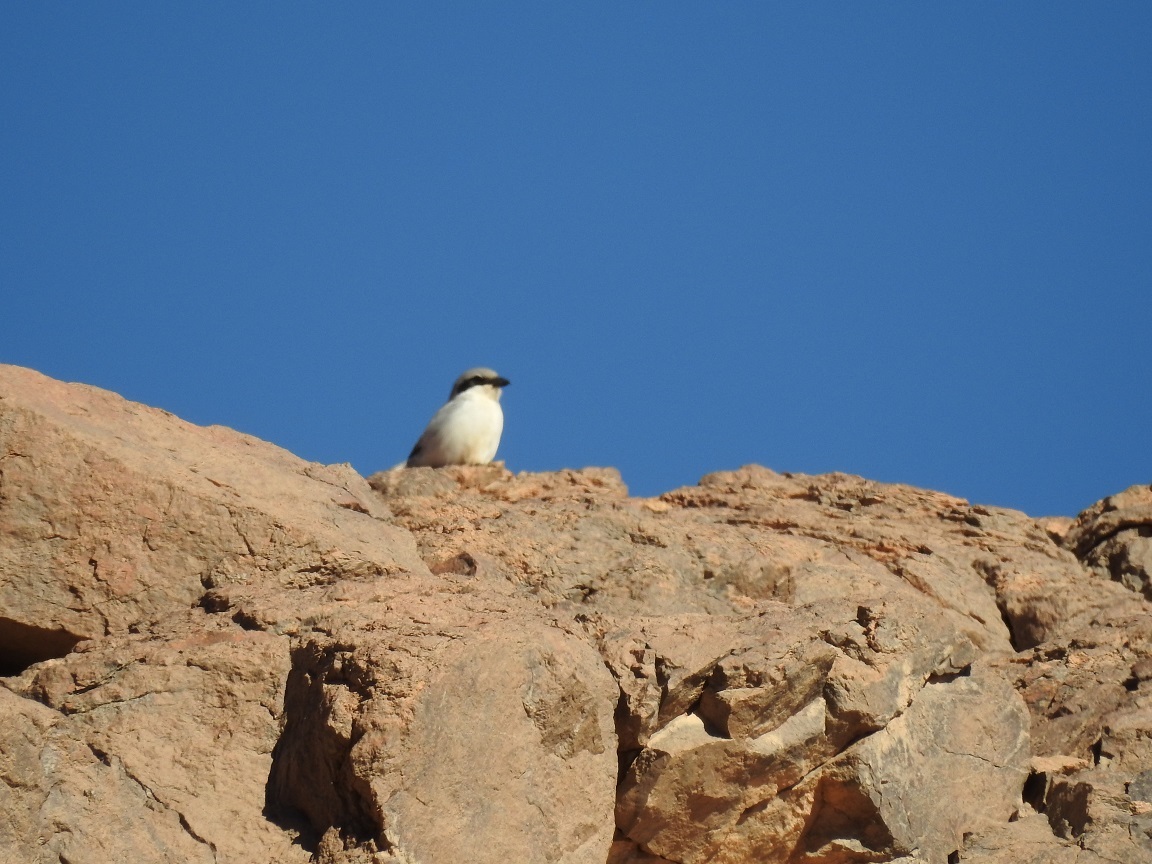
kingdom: Animalia
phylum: Chordata
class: Aves
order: Passeriformes
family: Laniidae
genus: Lanius
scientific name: Lanius excubitor
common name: Great grey shrike
